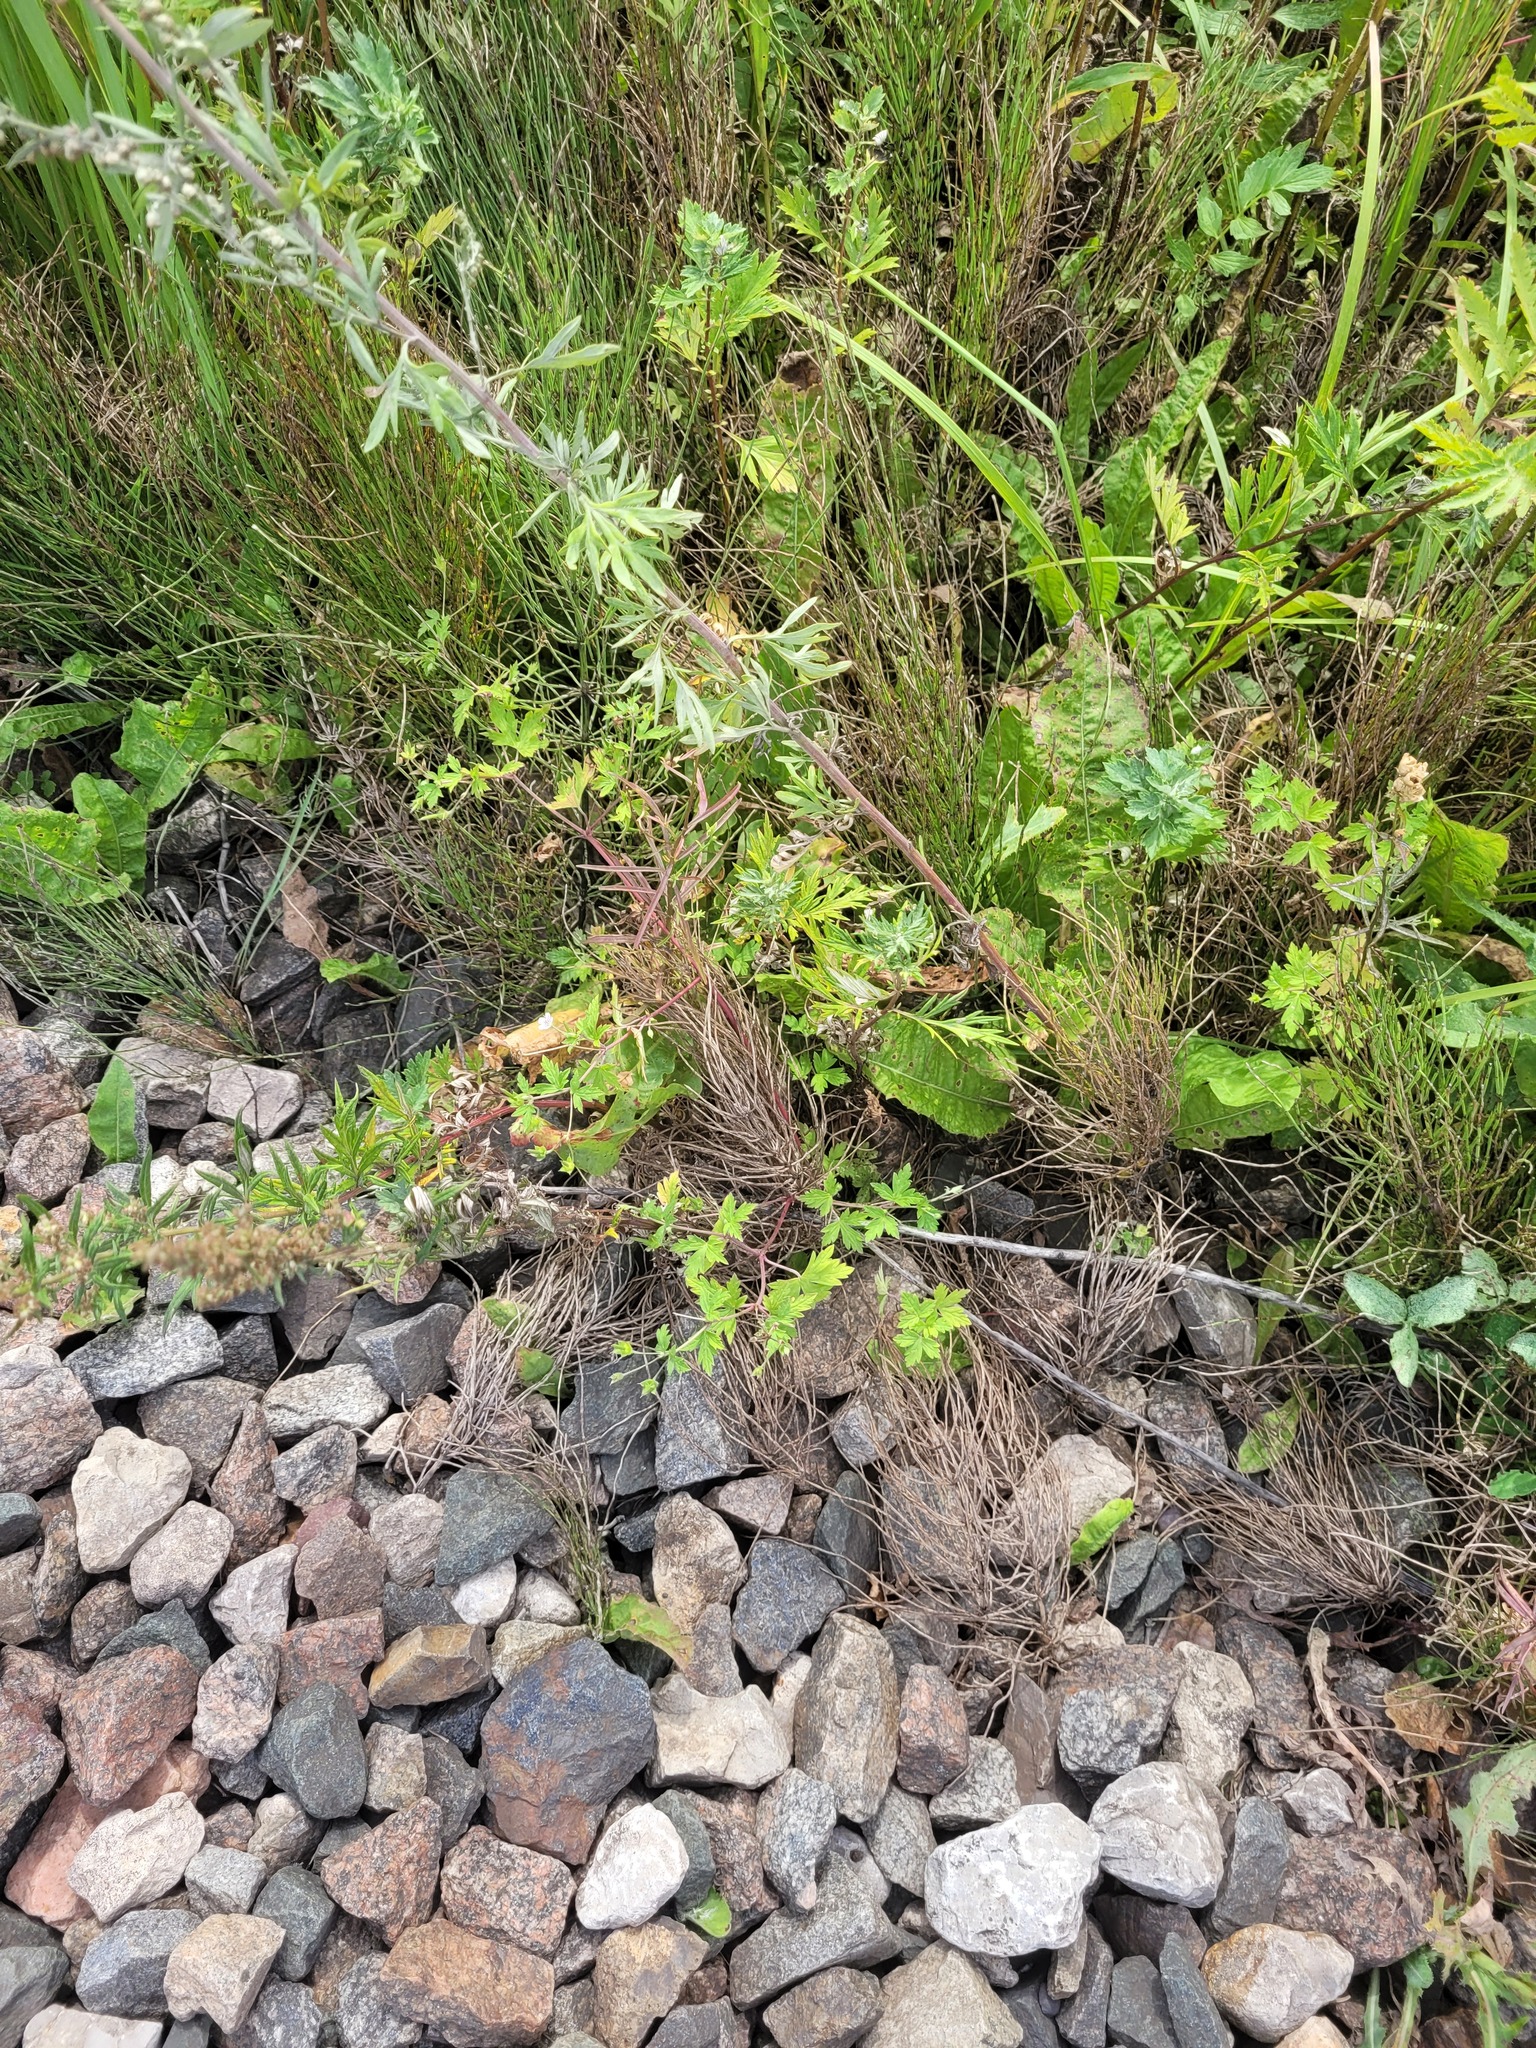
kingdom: Plantae
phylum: Tracheophyta
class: Magnoliopsida
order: Geraniales
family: Geraniaceae
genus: Geranium
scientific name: Geranium sibiricum
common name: Siberian crane's-bill
